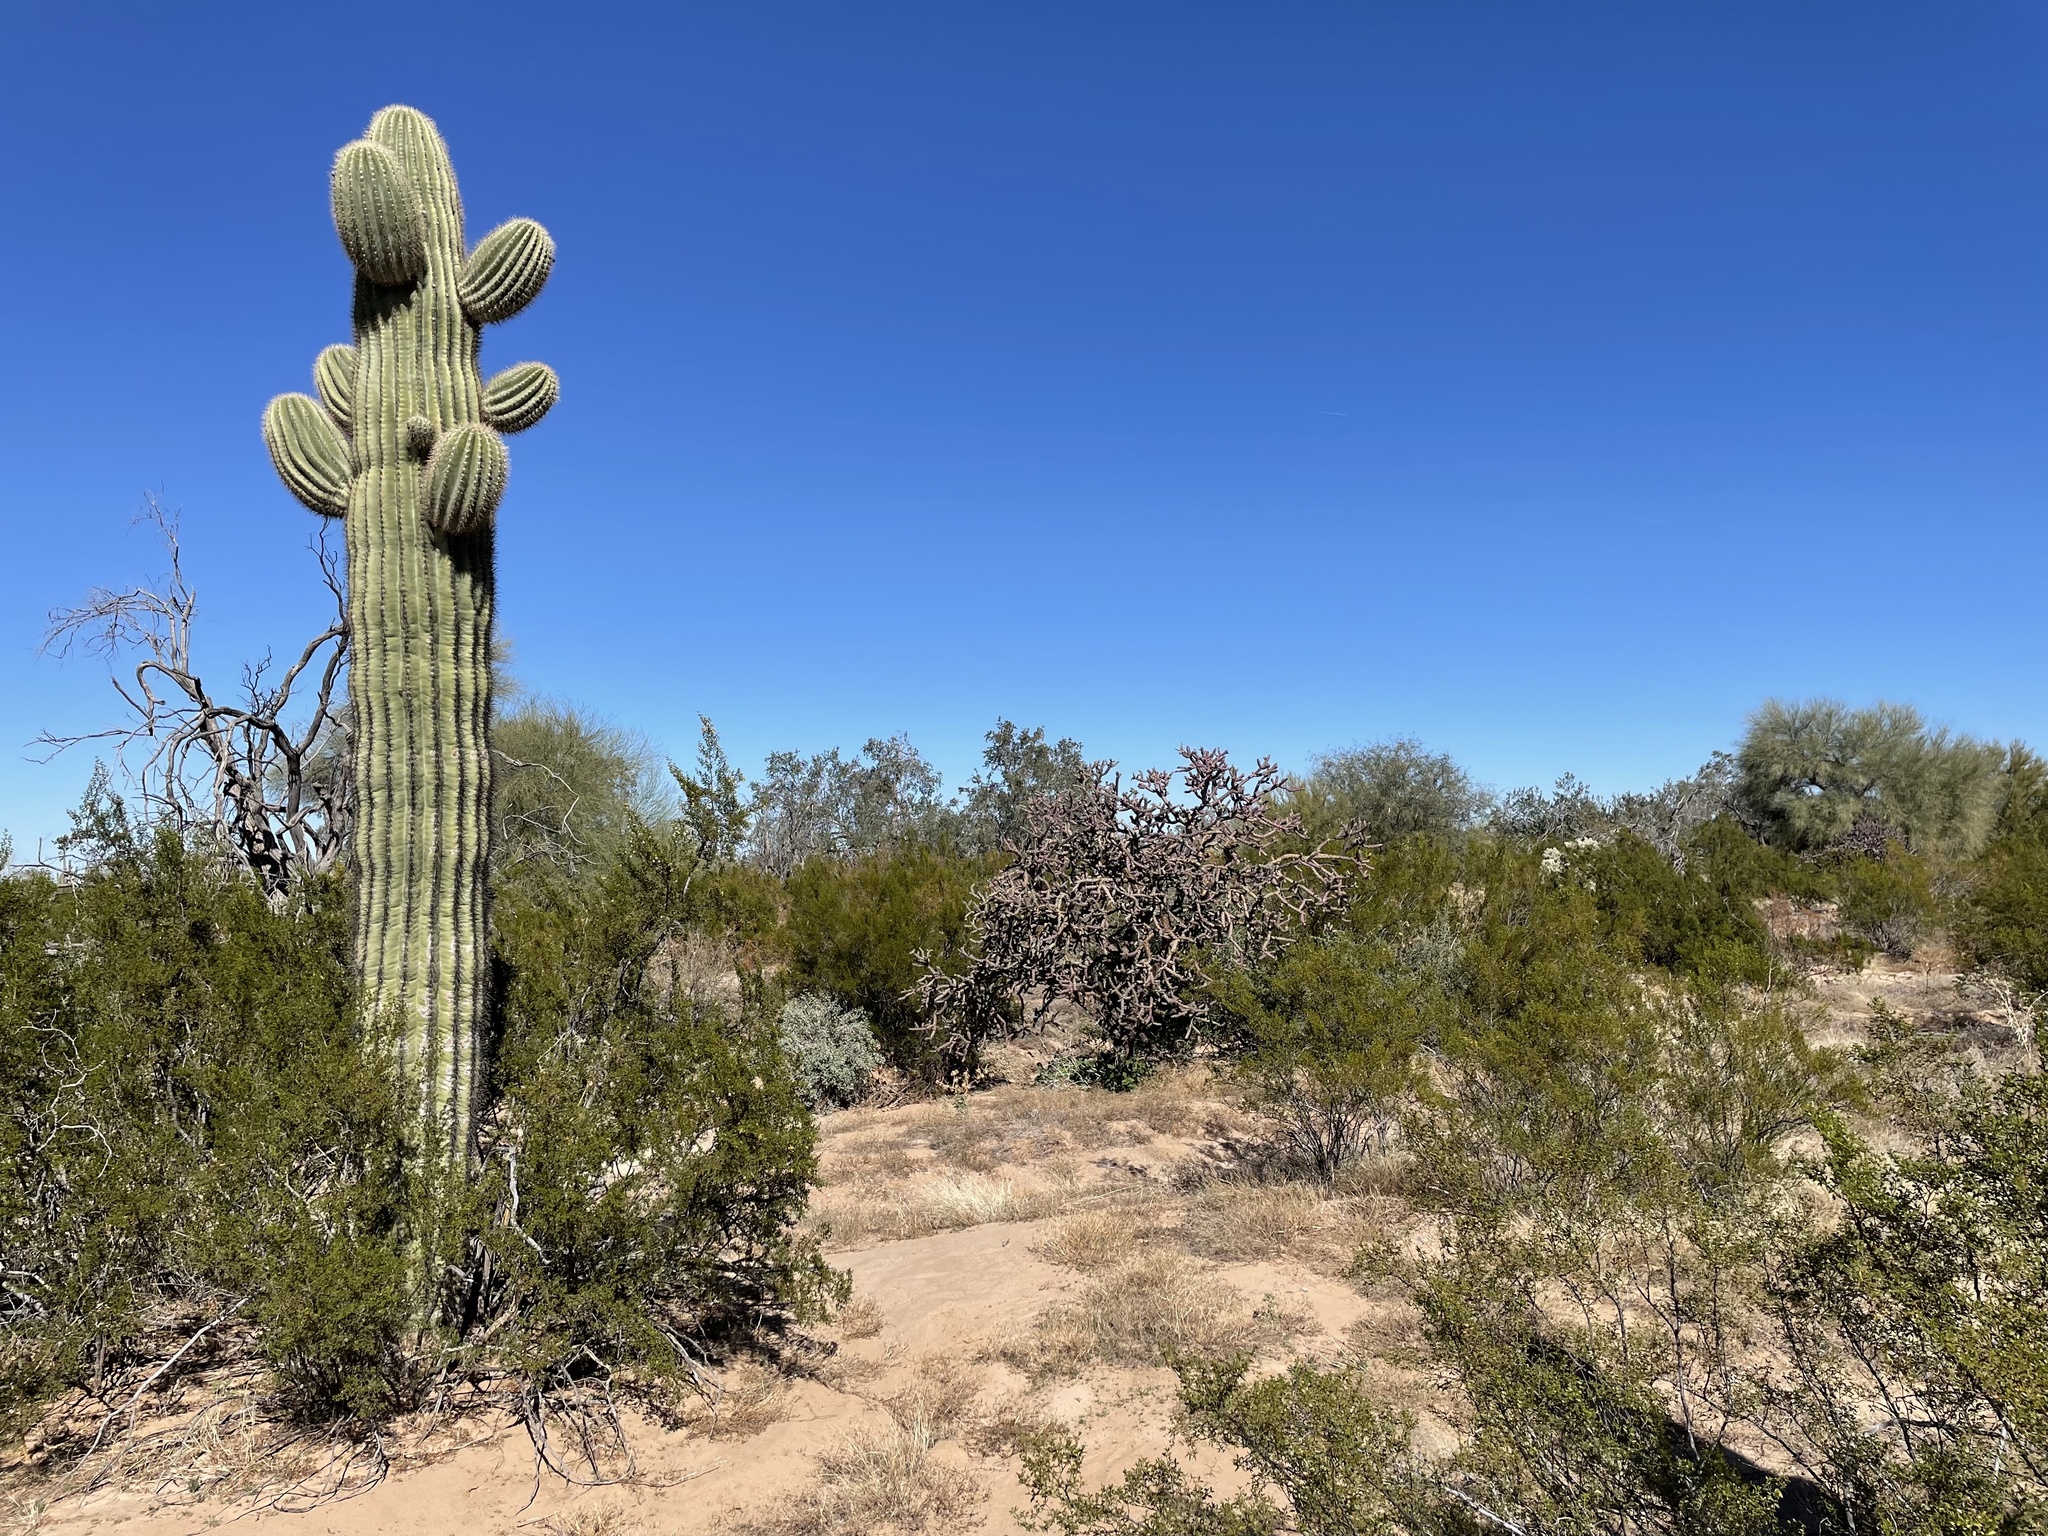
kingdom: Plantae
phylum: Tracheophyta
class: Magnoliopsida
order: Caryophyllales
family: Cactaceae
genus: Carnegiea
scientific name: Carnegiea gigantea
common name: Saguaro
